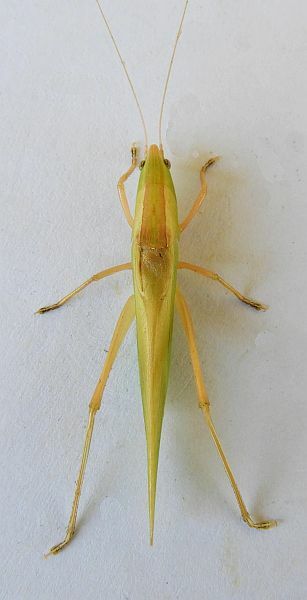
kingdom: Animalia
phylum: Arthropoda
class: Insecta
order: Orthoptera
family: Tettigoniidae
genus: Bucrates
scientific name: Bucrates weissmani
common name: Weissman's conehead
